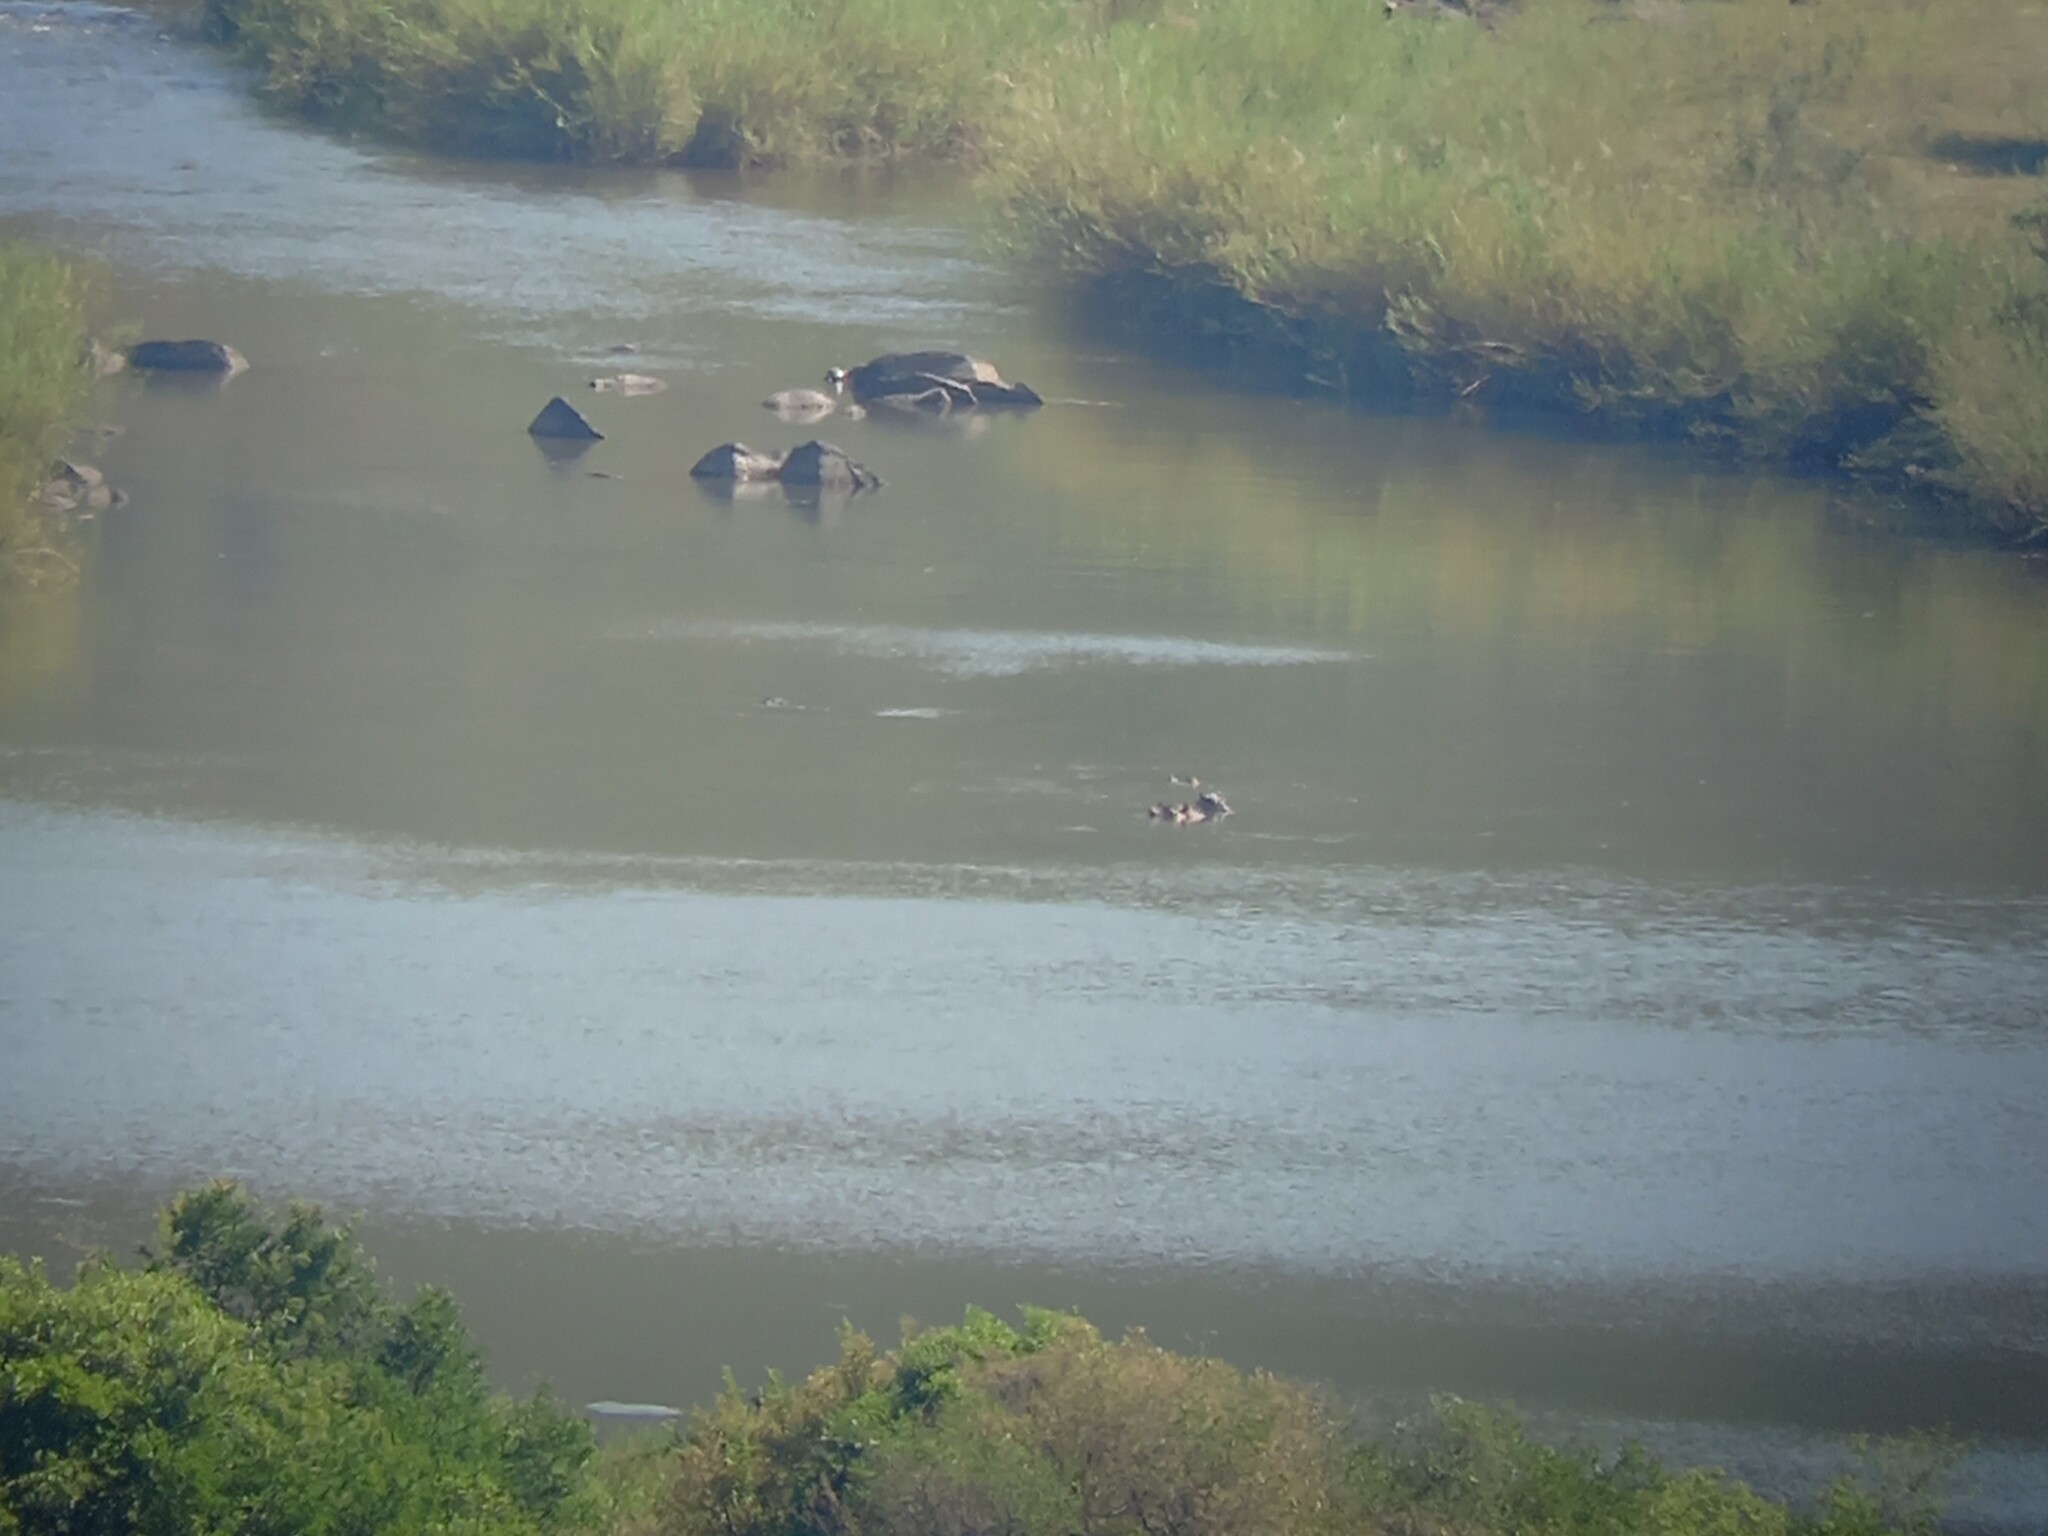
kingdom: Animalia
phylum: Chordata
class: Mammalia
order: Artiodactyla
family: Hippopotamidae
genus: Hippopotamus
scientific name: Hippopotamus amphibius
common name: Common hippopotamus
